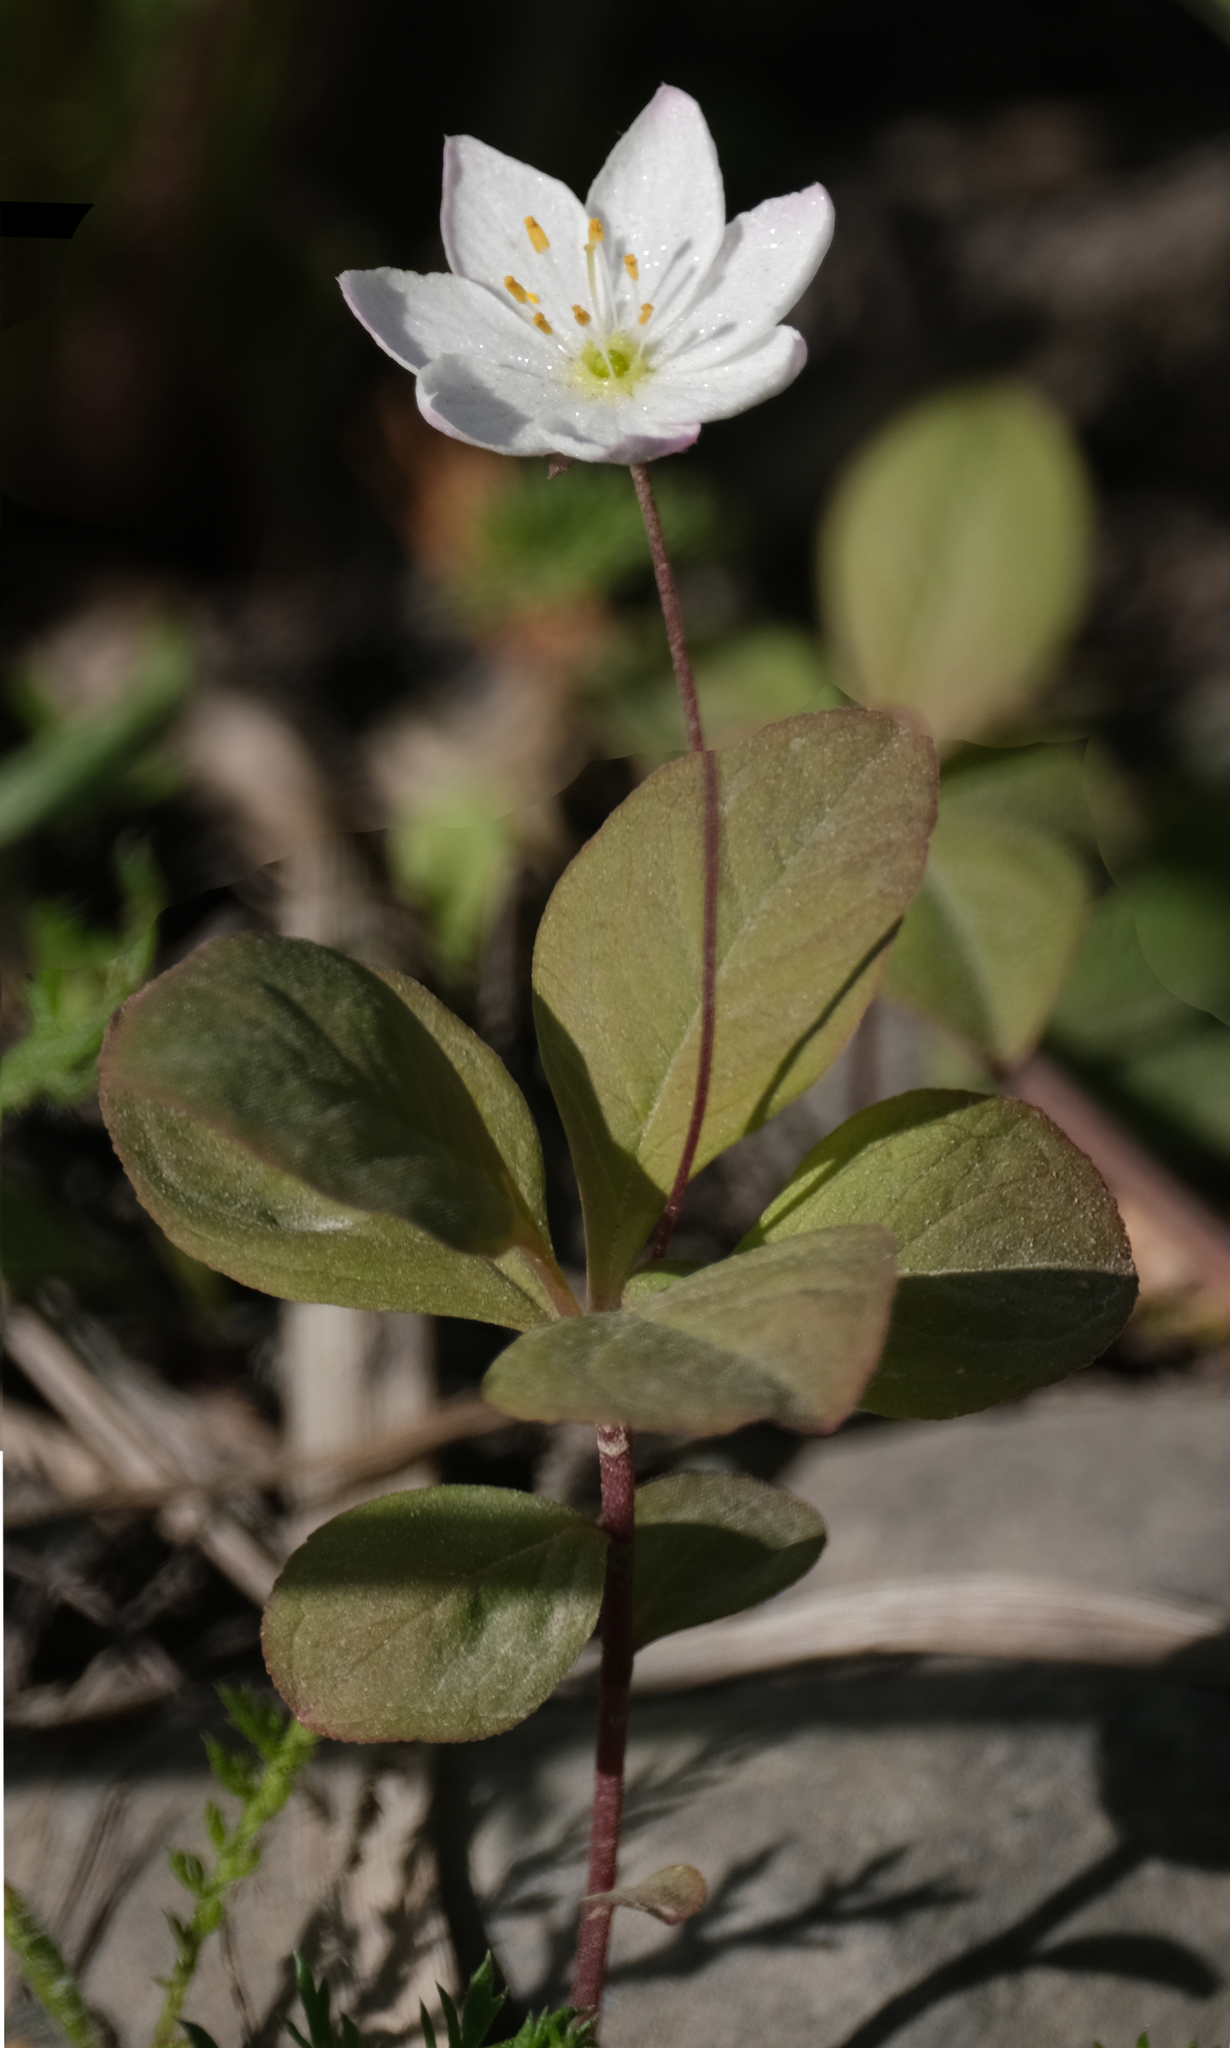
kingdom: Plantae
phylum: Tracheophyta
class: Magnoliopsida
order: Ericales
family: Primulaceae
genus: Lysimachia
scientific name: Lysimachia europaea
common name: Arctic starflower
